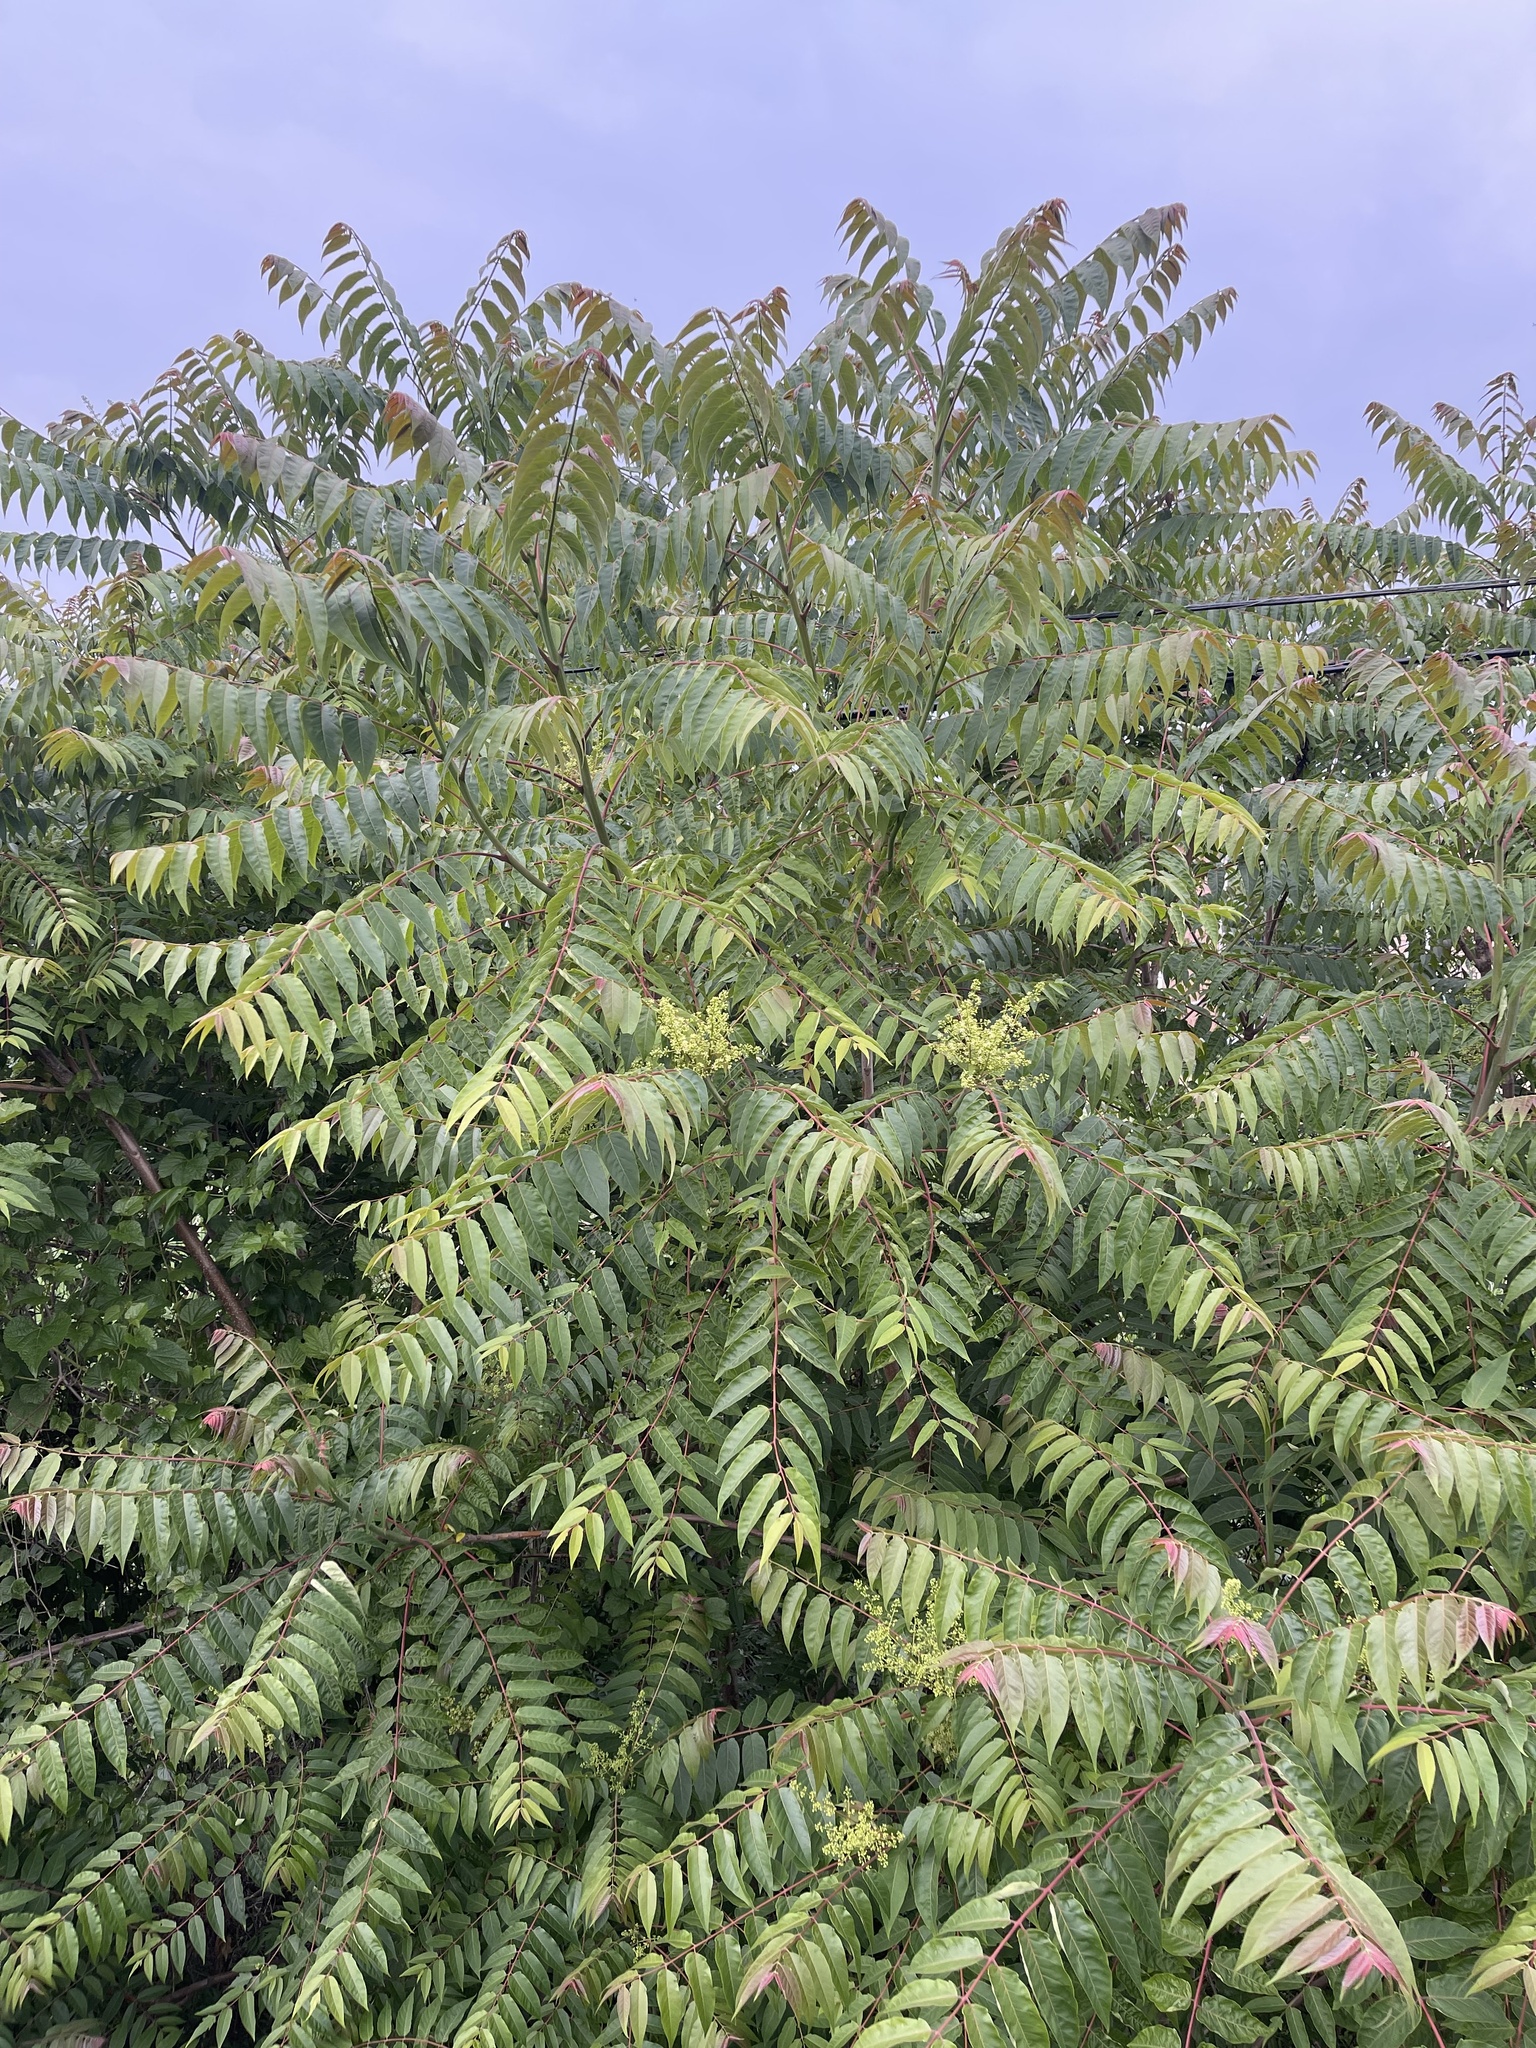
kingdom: Plantae
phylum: Tracheophyta
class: Magnoliopsida
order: Sapindales
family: Simaroubaceae
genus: Ailanthus
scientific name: Ailanthus altissima
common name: Tree-of-heaven
